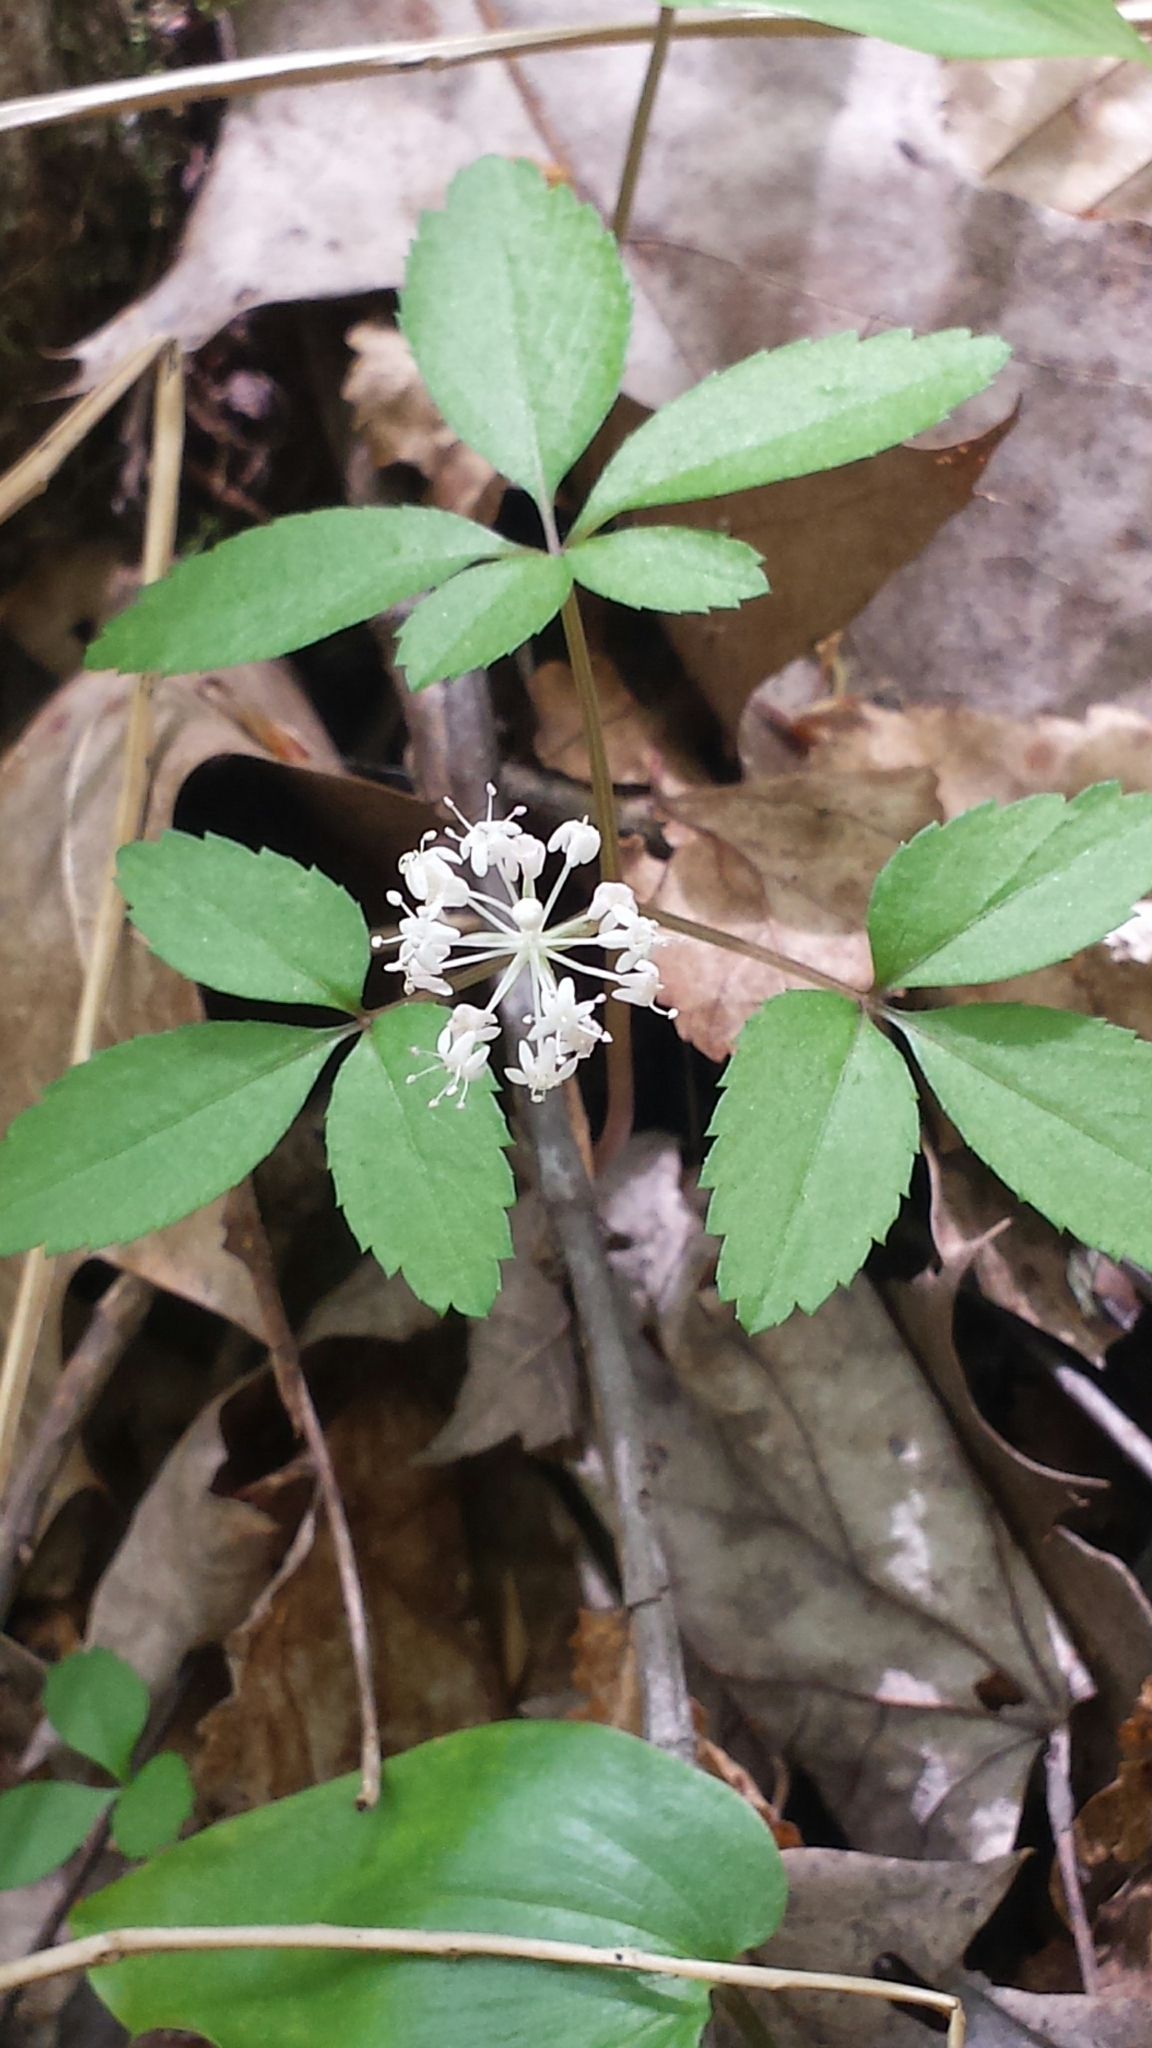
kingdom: Plantae
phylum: Tracheophyta
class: Magnoliopsida
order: Apiales
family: Araliaceae
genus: Panax
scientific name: Panax trifolius
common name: Dwarf ginseng
